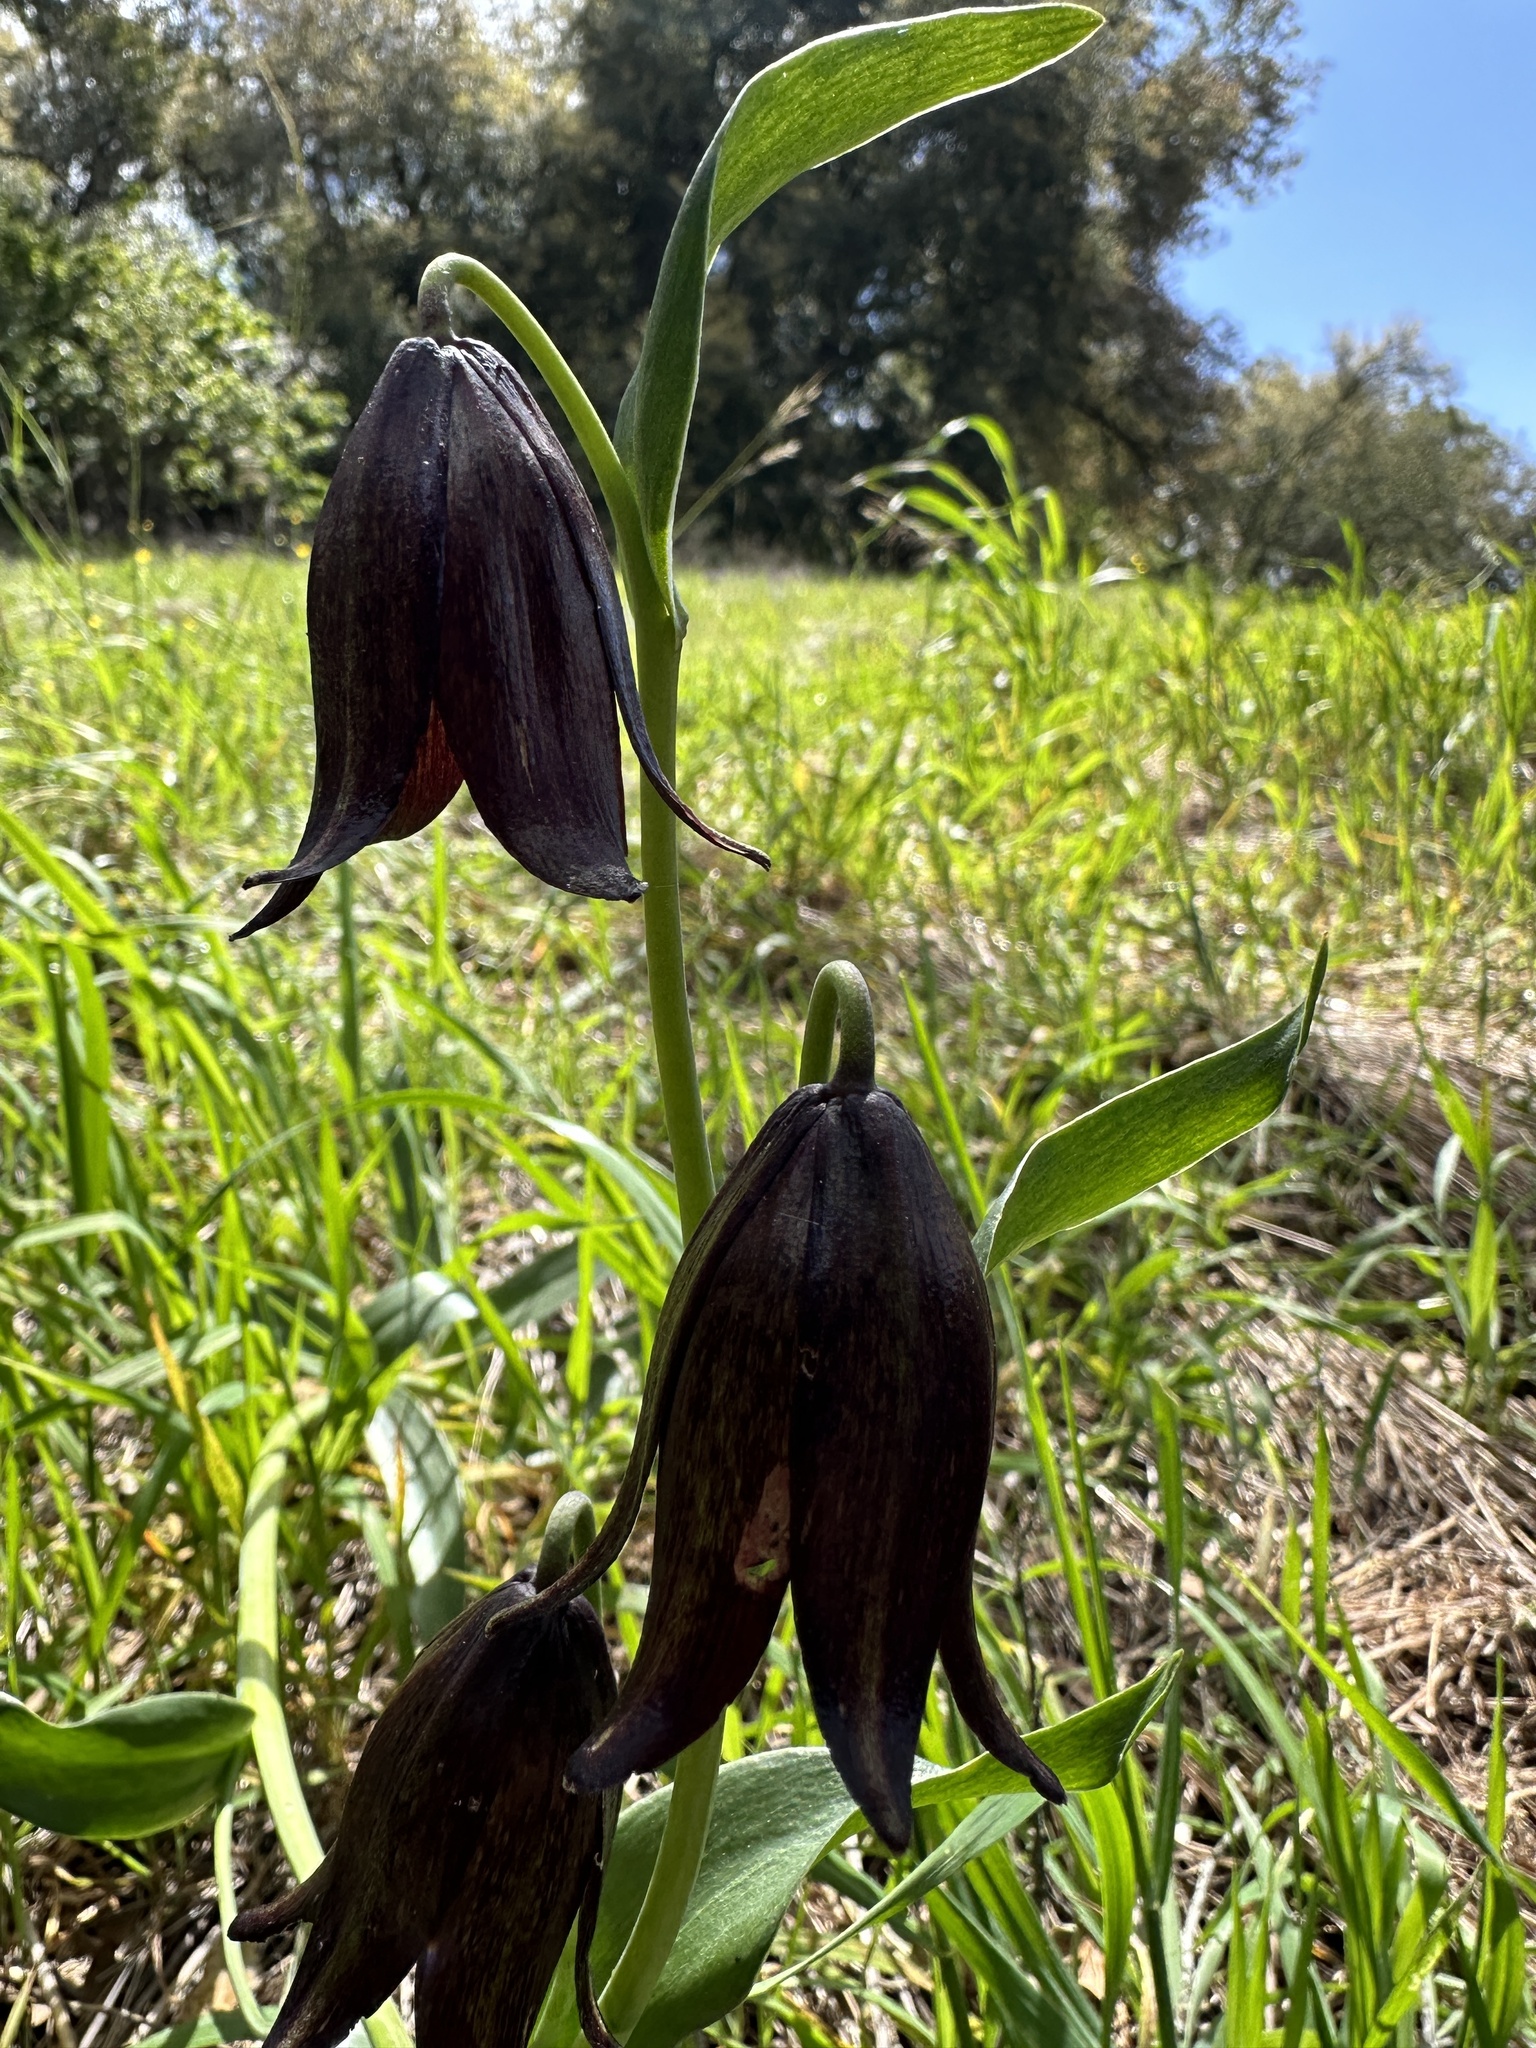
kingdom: Plantae
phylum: Tracheophyta
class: Liliopsida
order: Liliales
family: Liliaceae
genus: Fritillaria
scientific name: Fritillaria biflora
